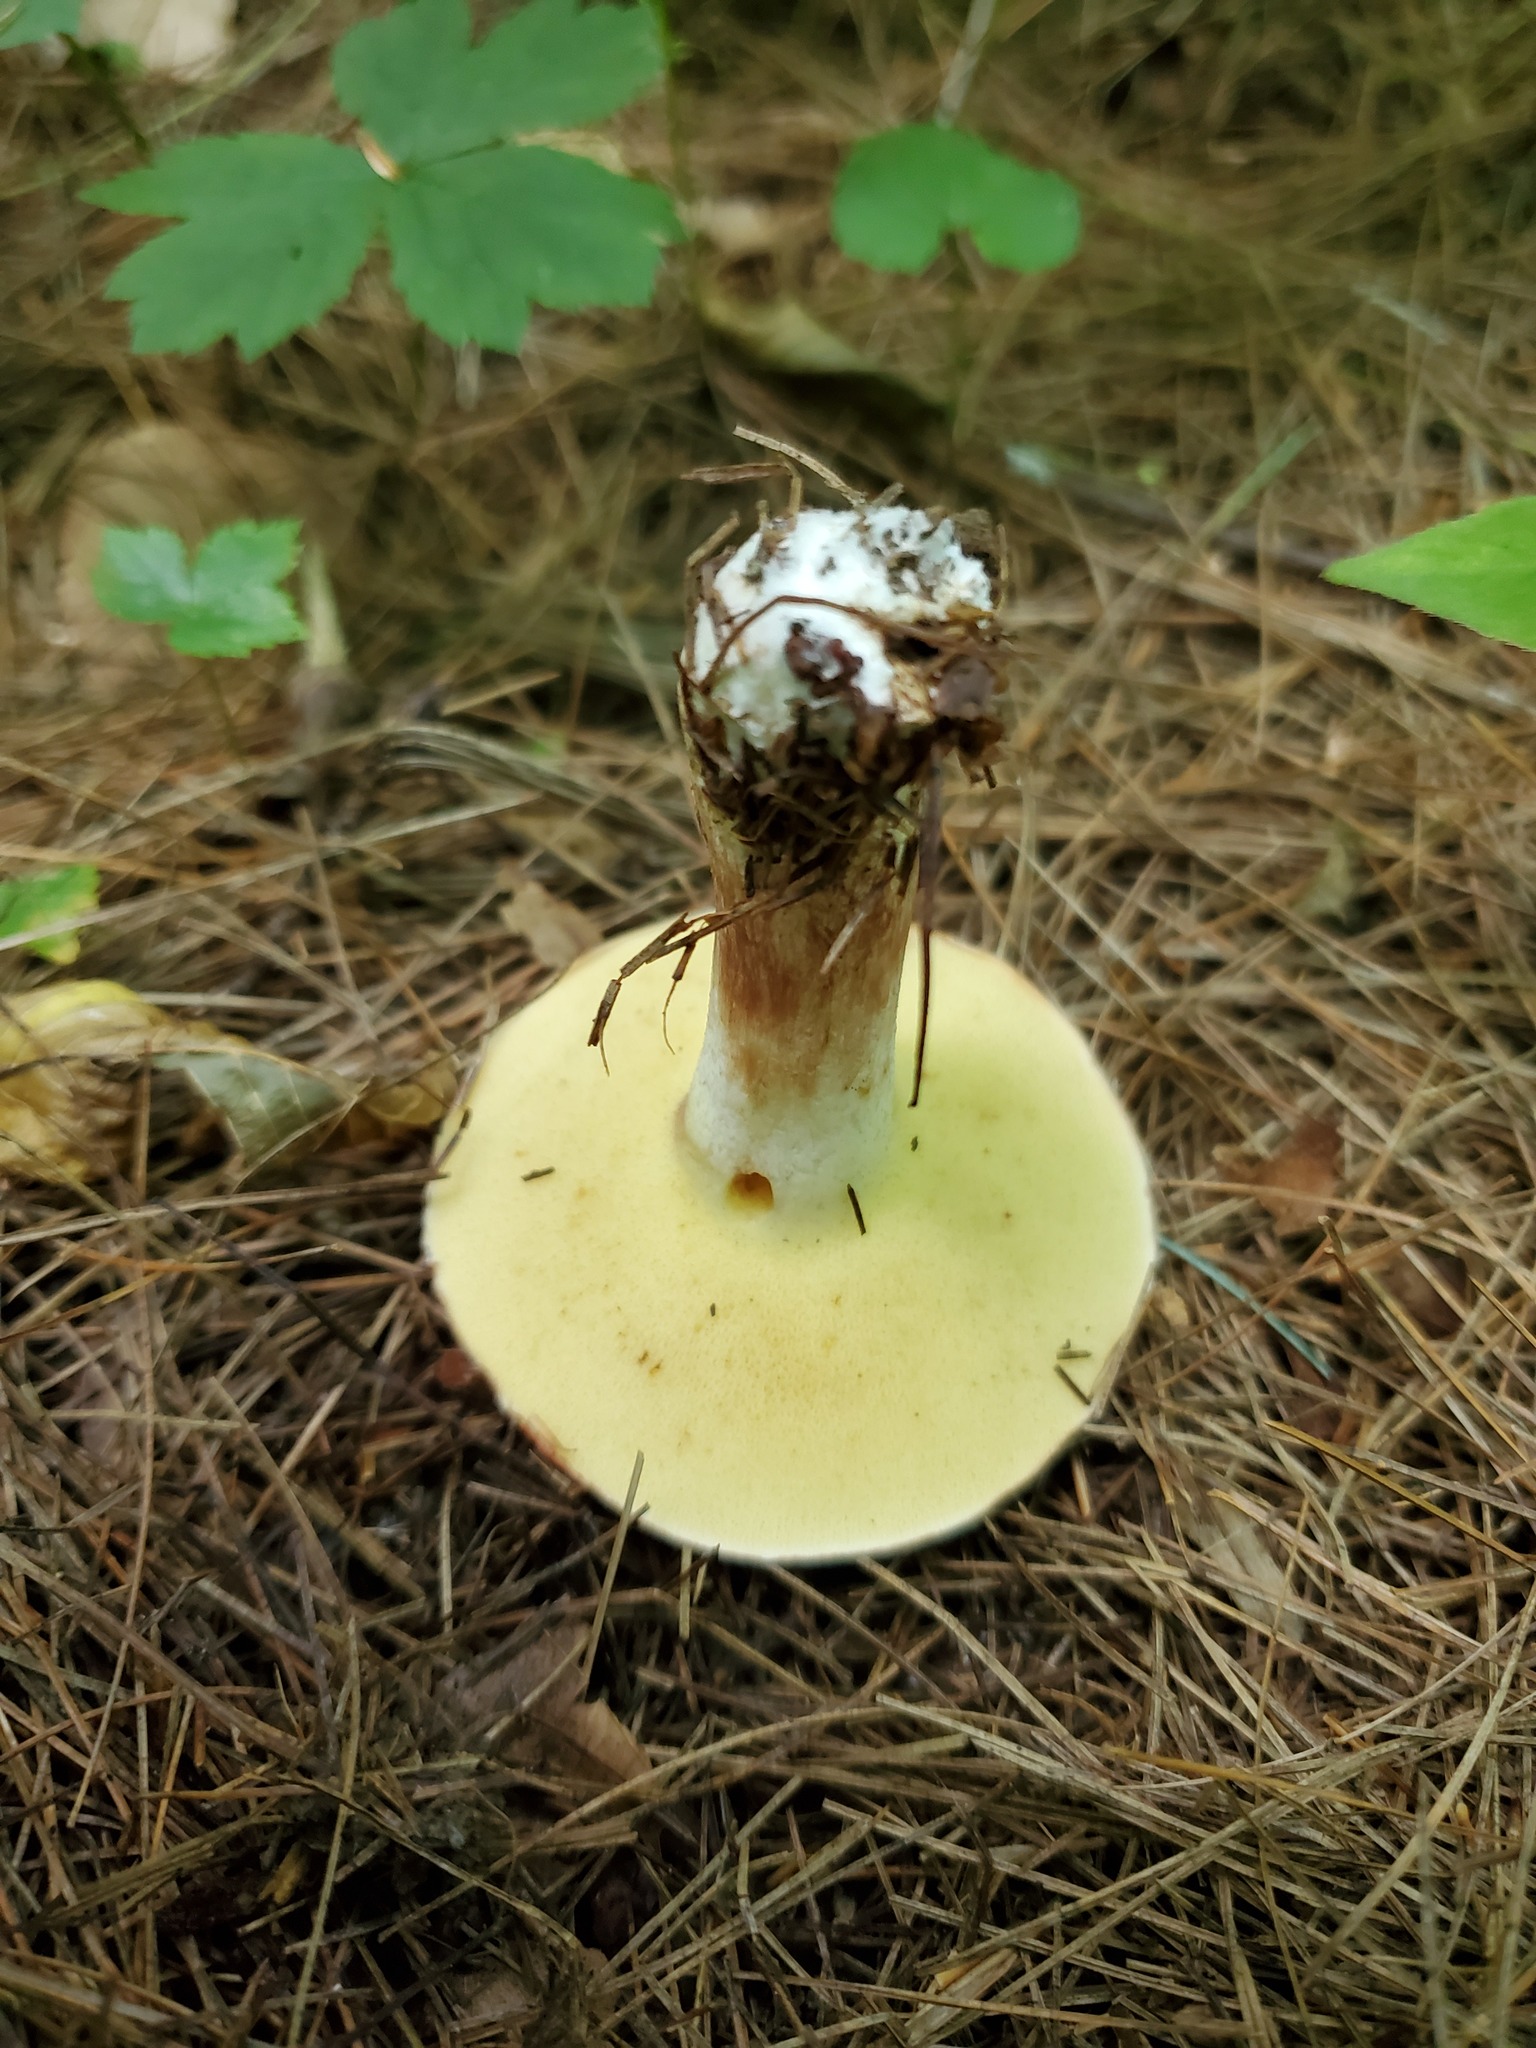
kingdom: Fungi
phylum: Basidiomycota
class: Agaricomycetes
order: Boletales
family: Suillaceae
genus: Fuscoboletinus
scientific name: Fuscoboletinus weaverae
